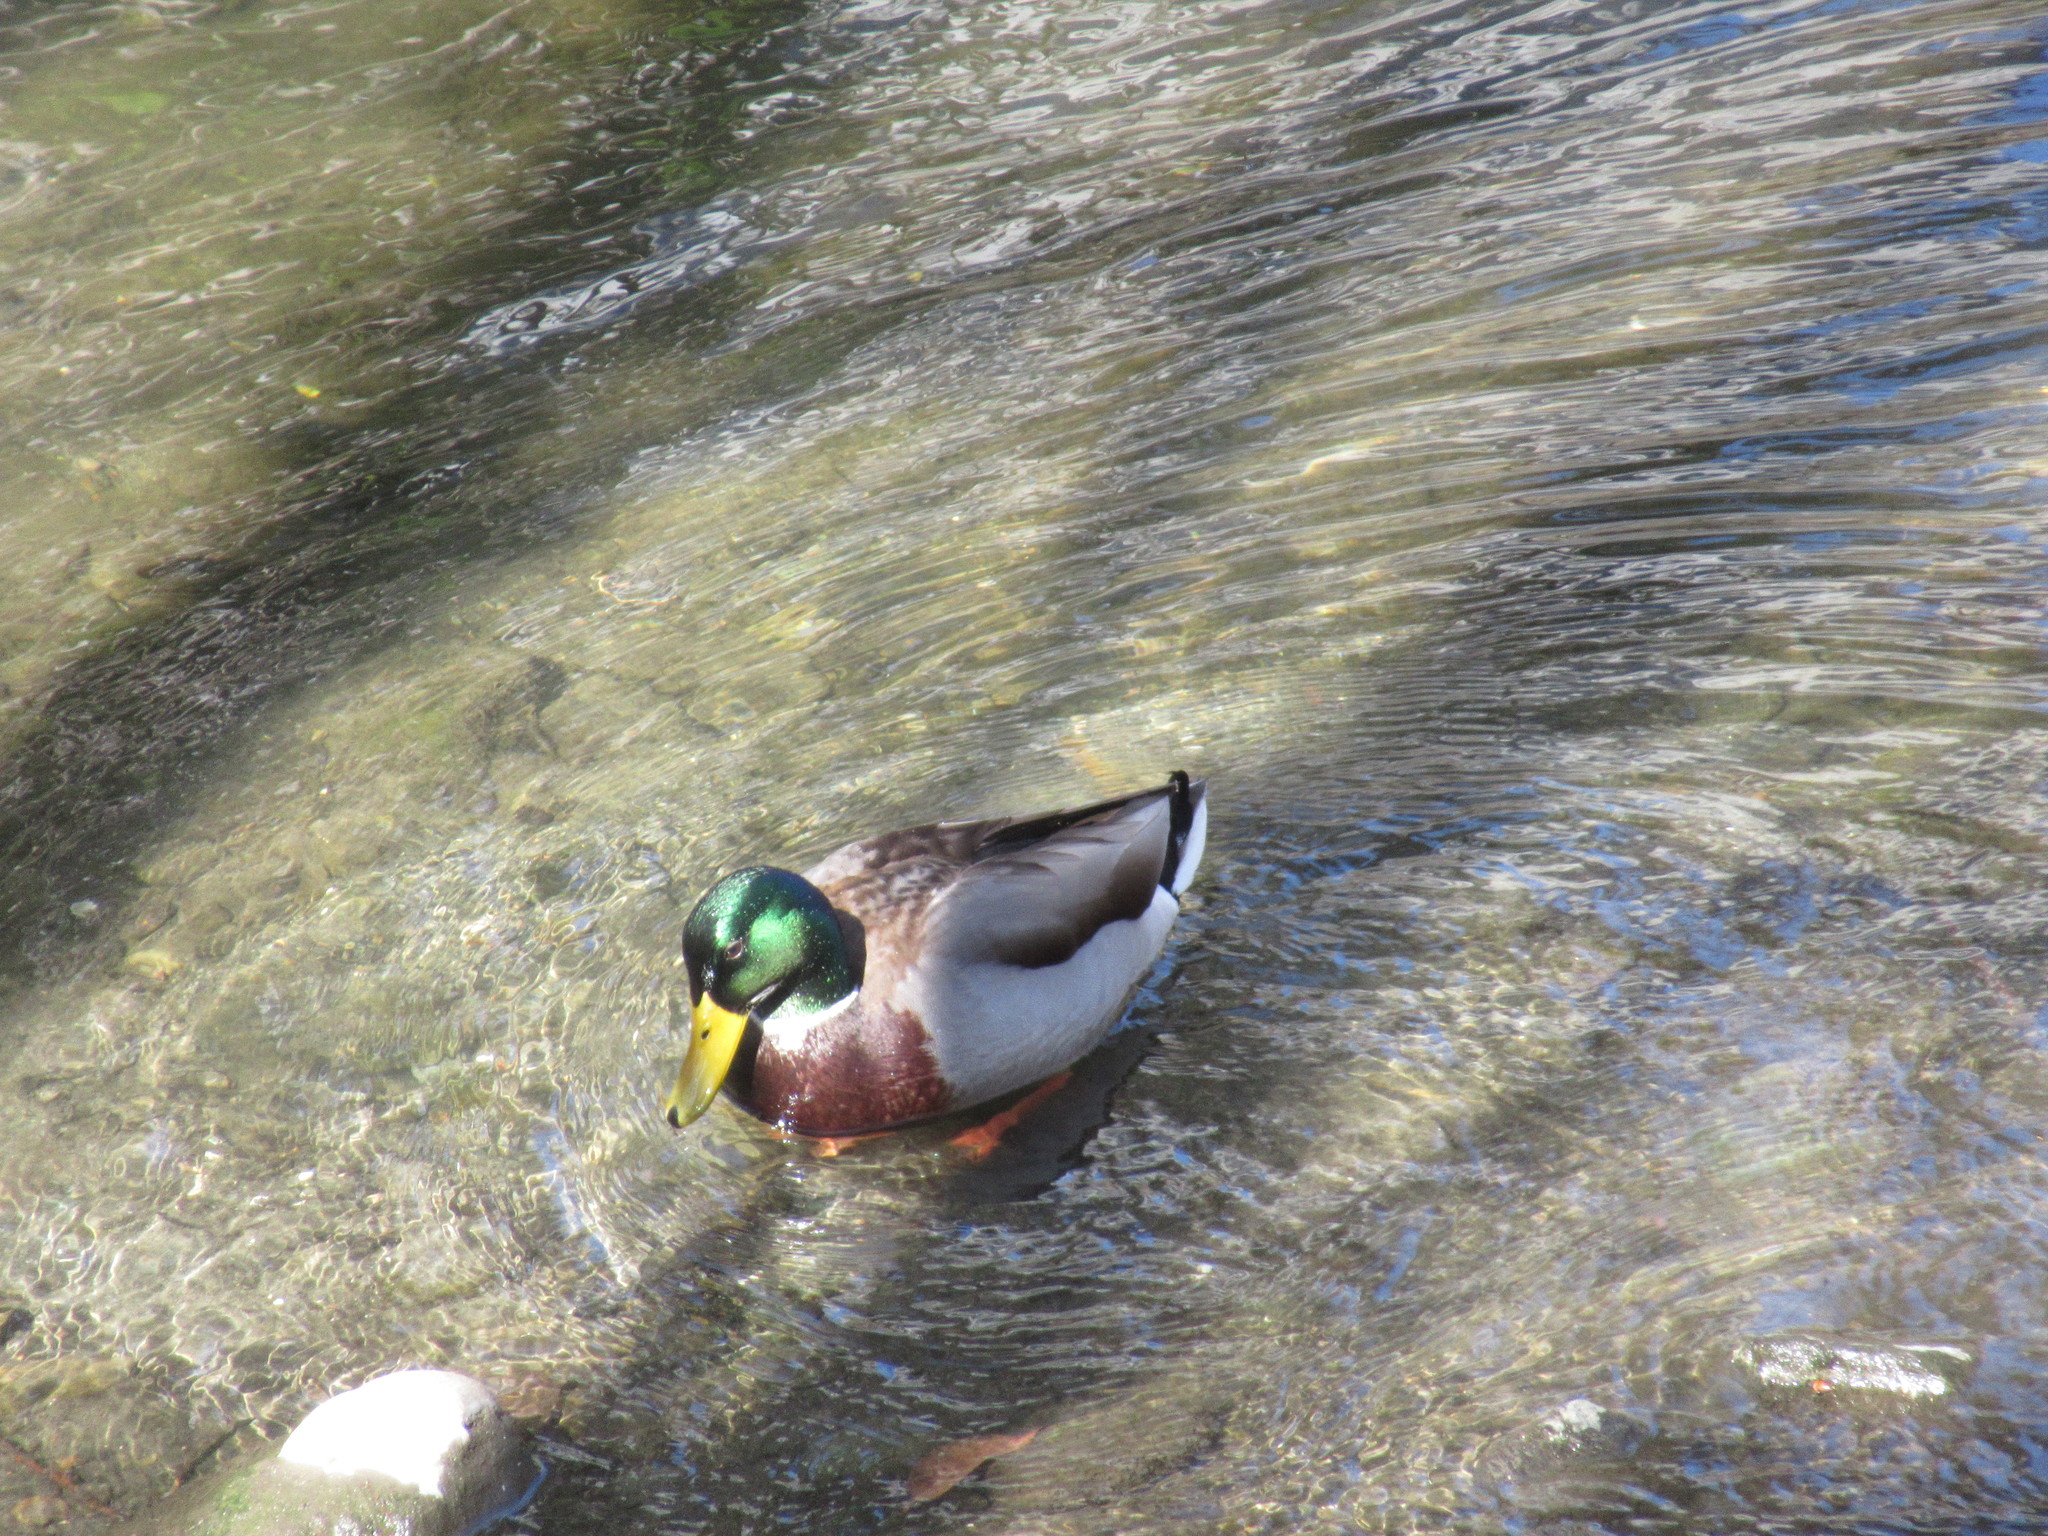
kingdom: Animalia
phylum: Chordata
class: Aves
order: Anseriformes
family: Anatidae
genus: Anas
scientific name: Anas platyrhynchos
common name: Mallard
